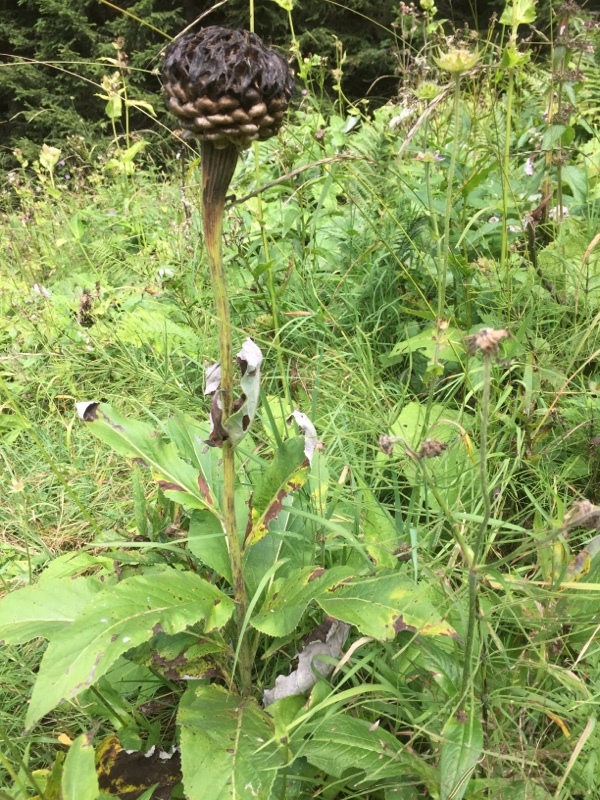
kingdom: Plantae
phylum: Tracheophyta
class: Magnoliopsida
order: Asterales
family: Asteraceae
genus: Leuzea
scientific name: Leuzea pusilla
